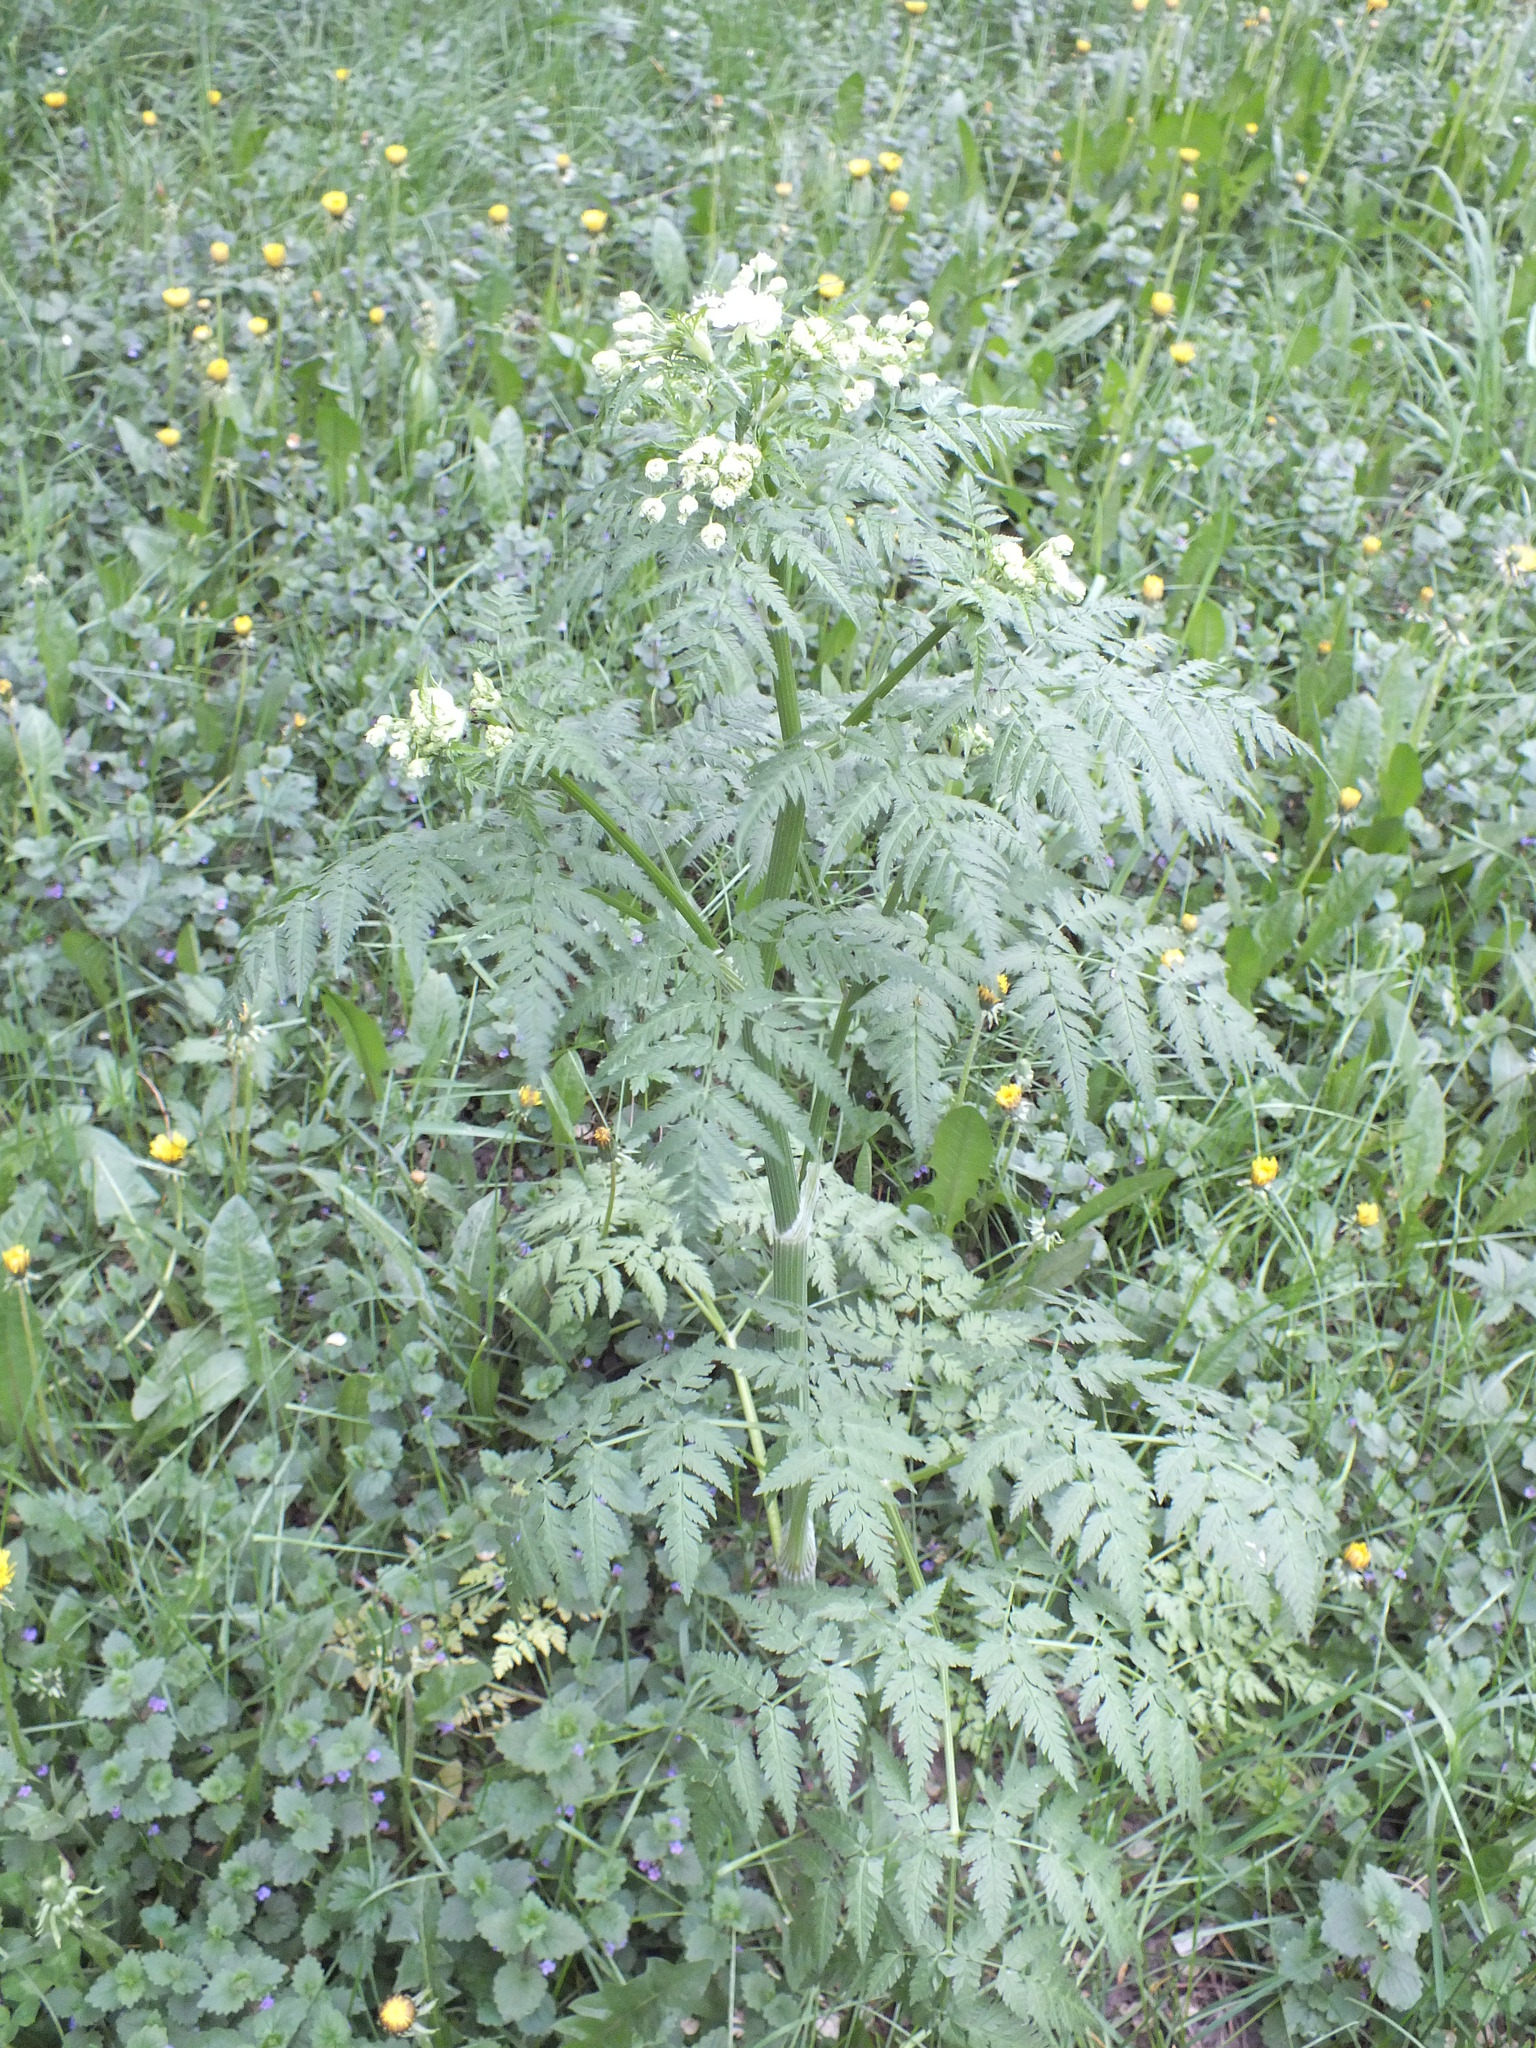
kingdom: Plantae
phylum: Tracheophyta
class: Magnoliopsida
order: Apiales
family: Apiaceae
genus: Anthriscus
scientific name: Anthriscus sylvestris
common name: Cow parsley
